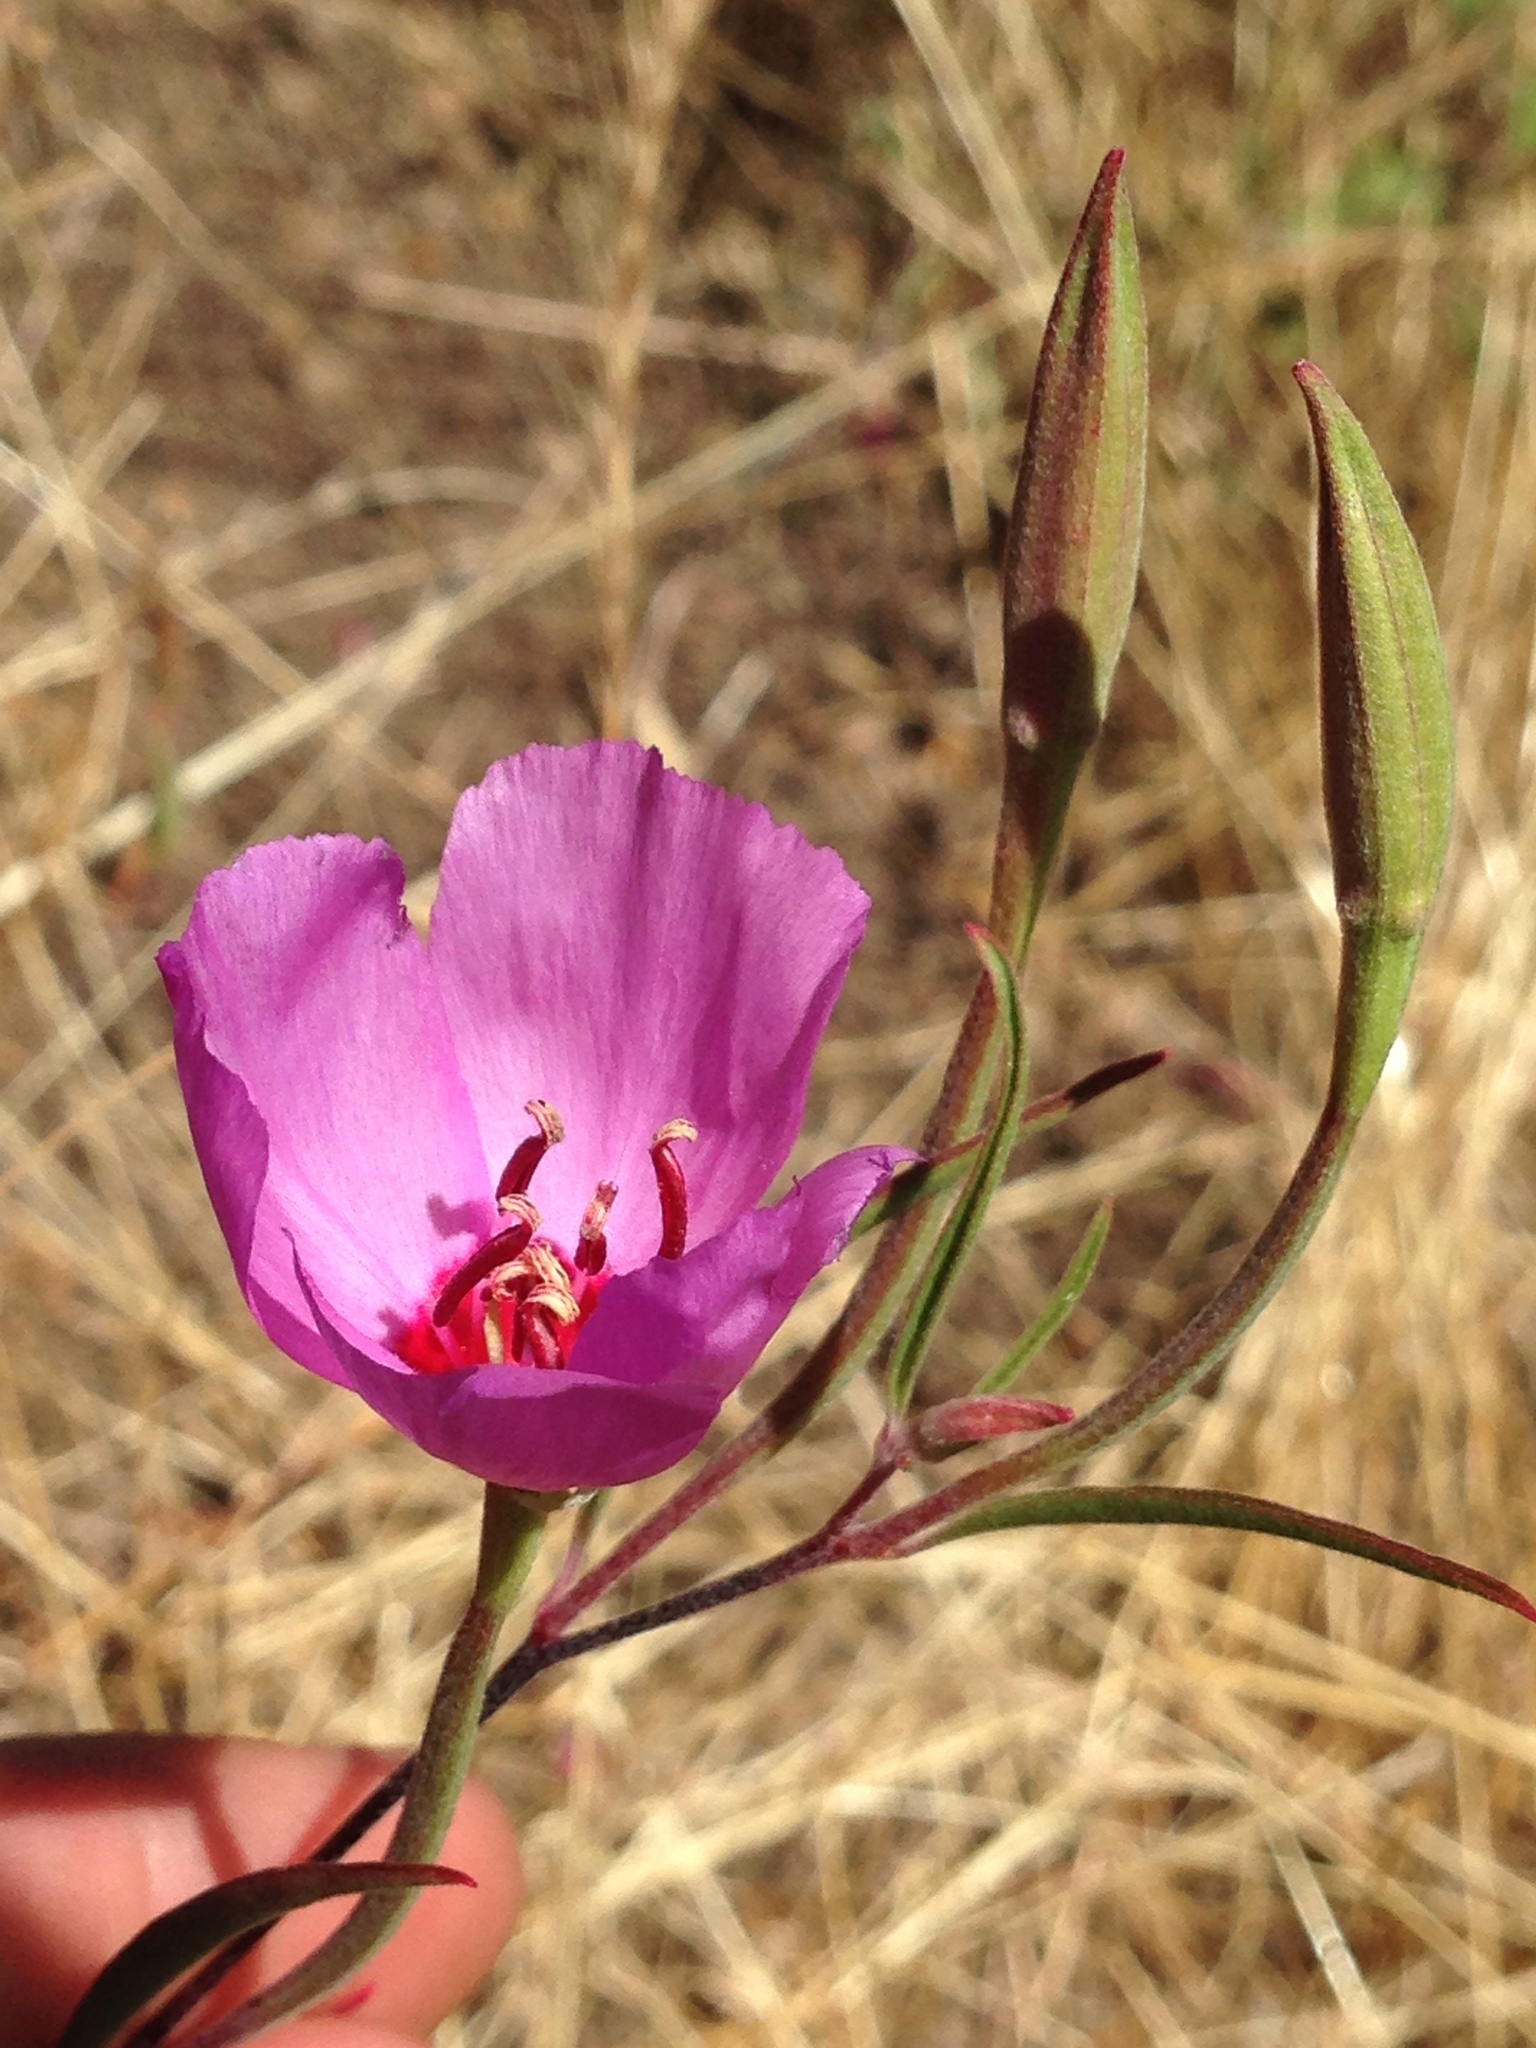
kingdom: Plantae
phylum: Tracheophyta
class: Magnoliopsida
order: Myrtales
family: Onagraceae
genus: Clarkia
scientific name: Clarkia rubicunda
